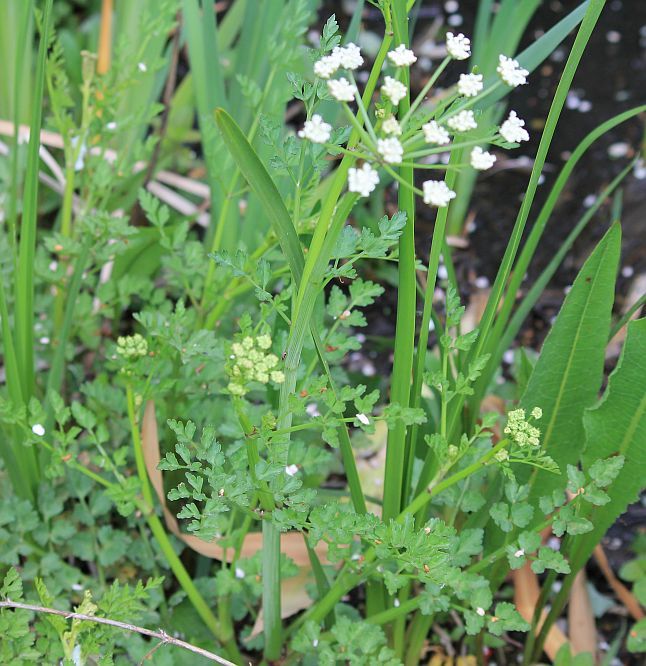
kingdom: Plantae
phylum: Tracheophyta
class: Magnoliopsida
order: Apiales
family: Apiaceae
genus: Oenanthe
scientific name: Oenanthe crocata
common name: Hemlock water-dropwort
